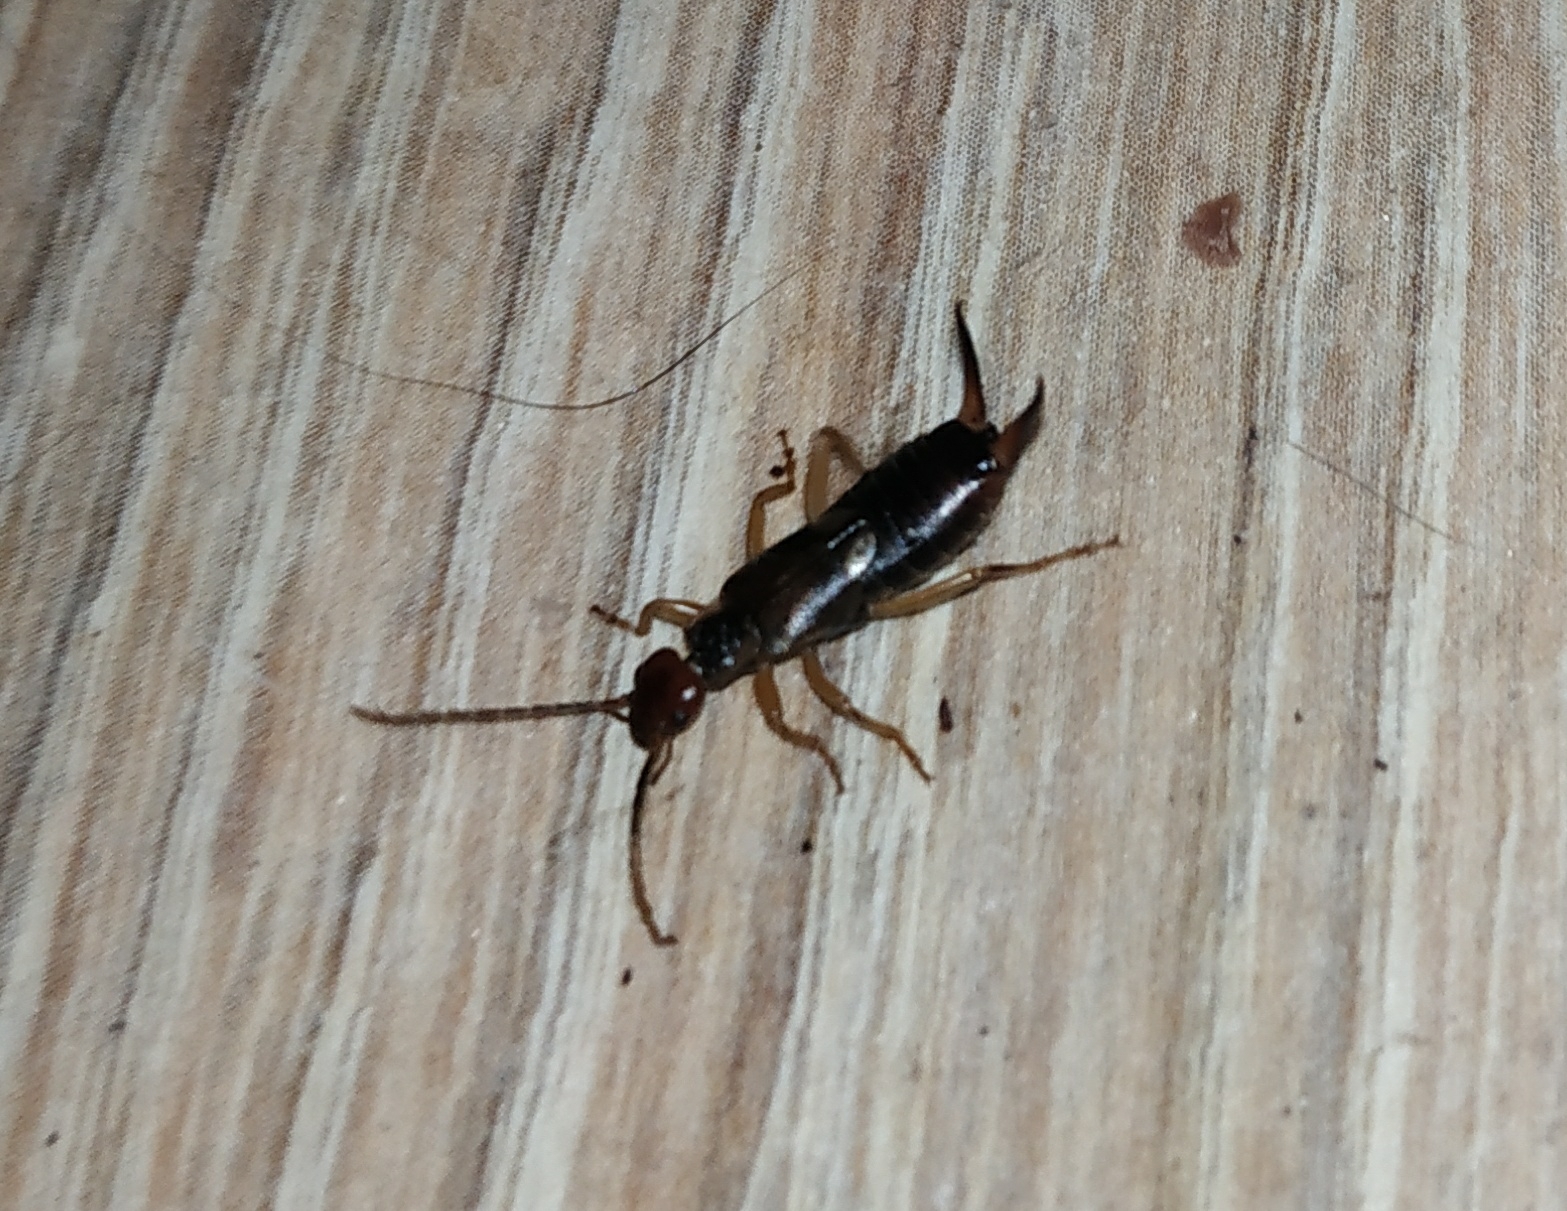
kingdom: Animalia
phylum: Arthropoda
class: Insecta
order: Dermaptera
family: Forficulidae
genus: Forficula
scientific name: Forficula
